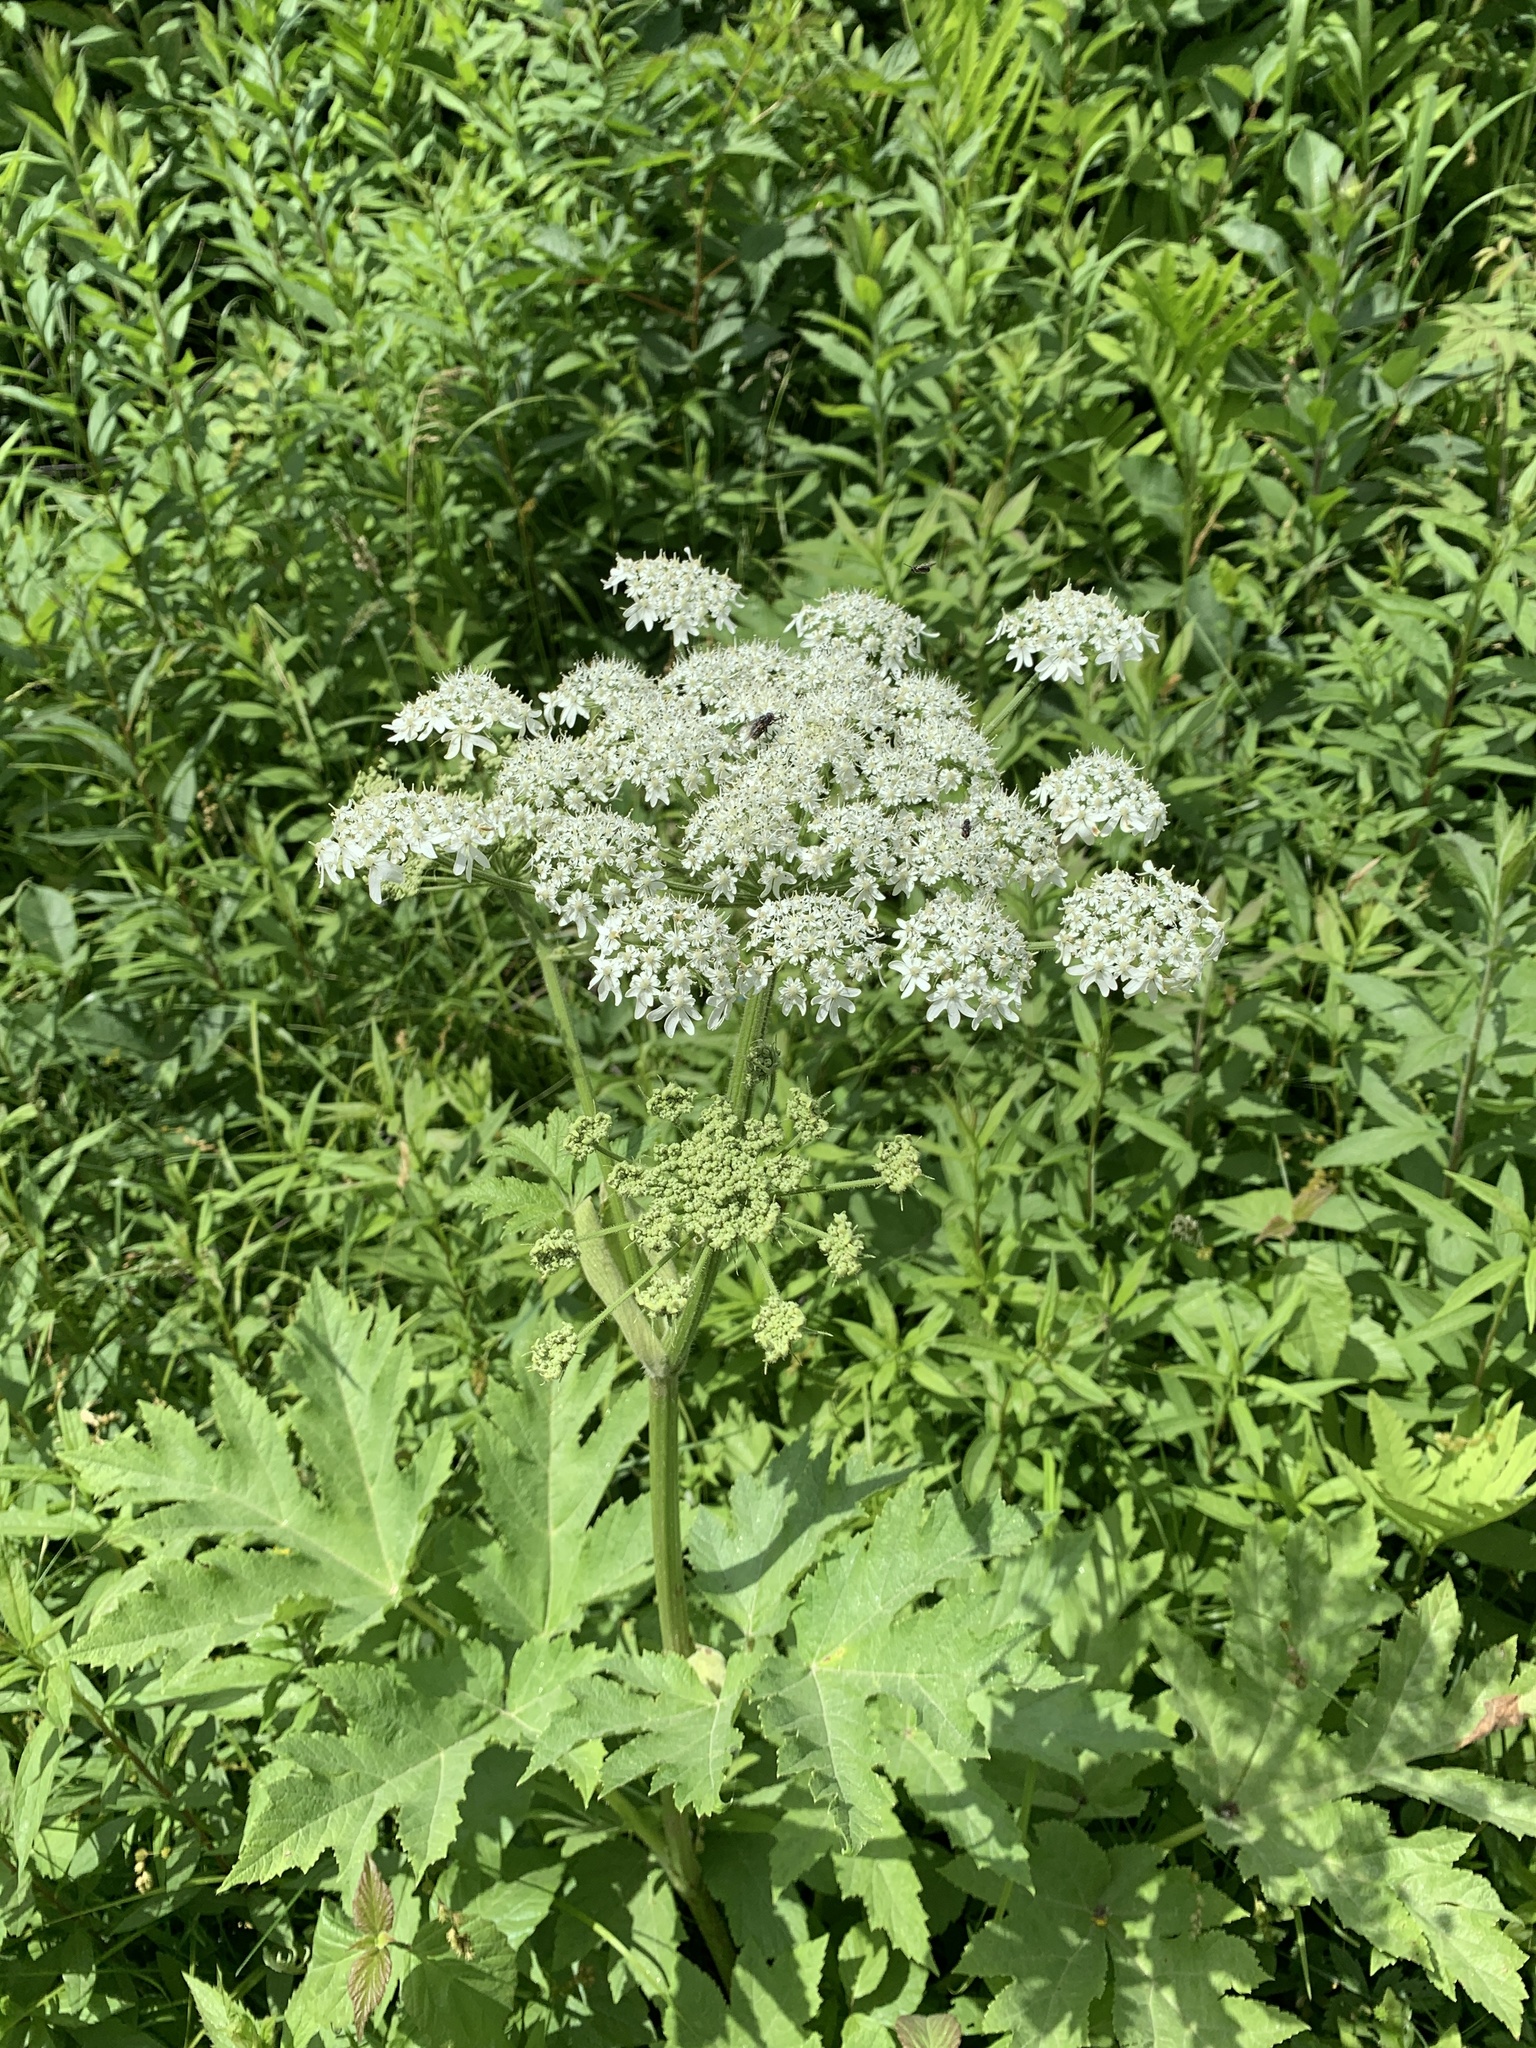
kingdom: Plantae
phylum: Tracheophyta
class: Magnoliopsida
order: Apiales
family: Apiaceae
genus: Heracleum
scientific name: Heracleum maximum
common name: American cow parsnip
